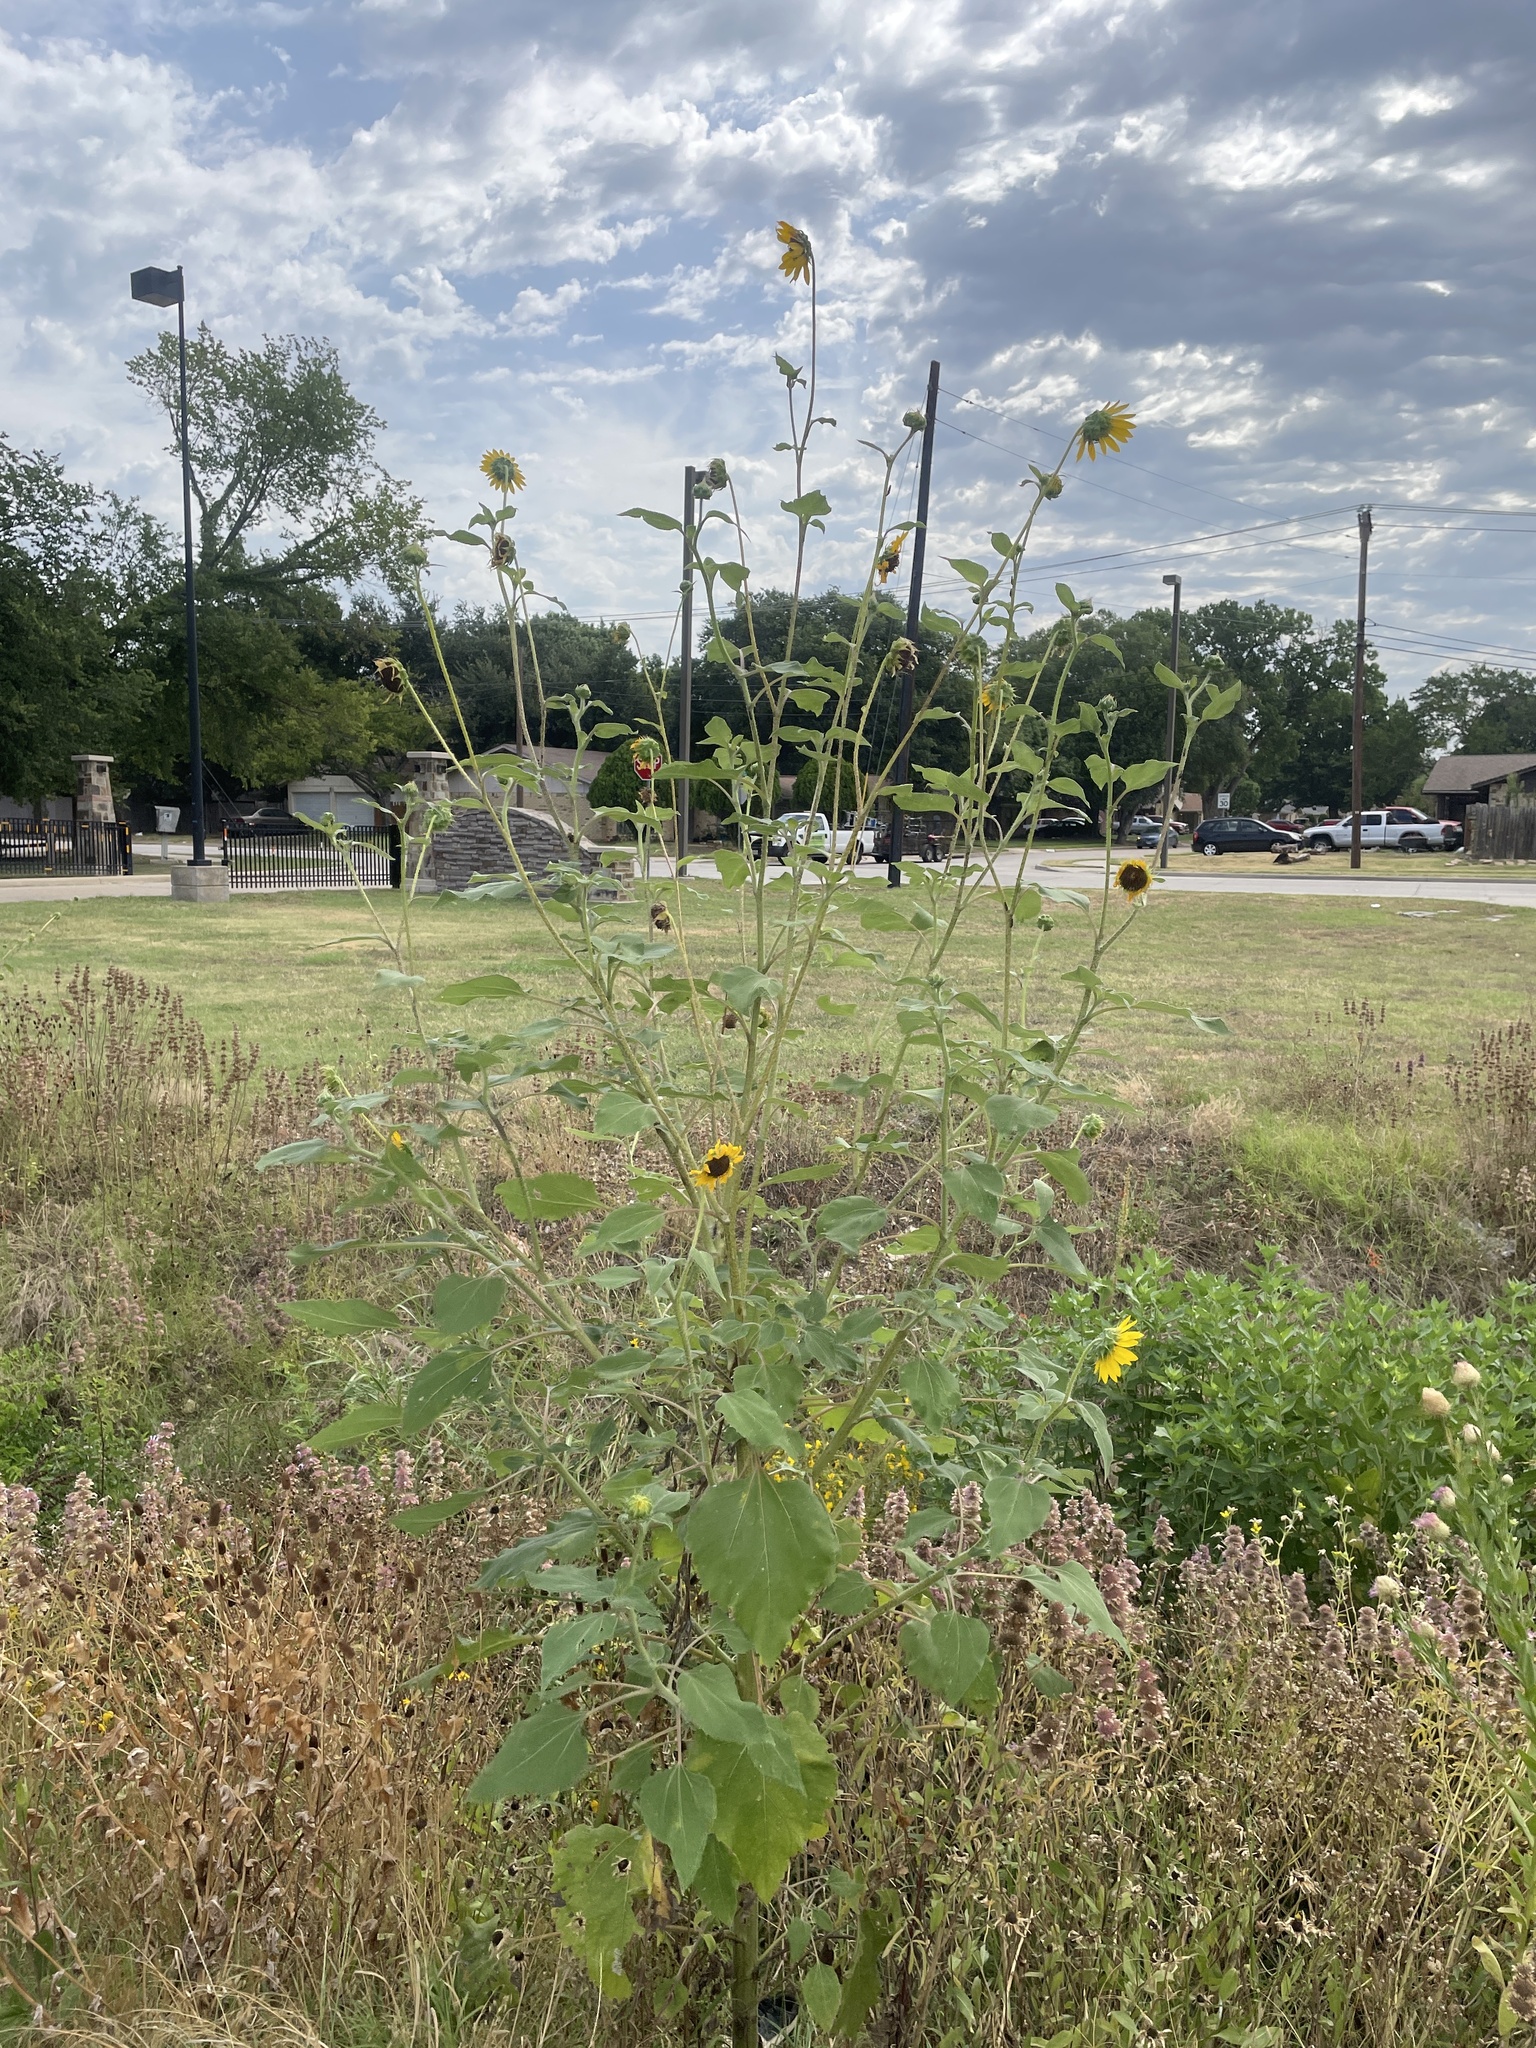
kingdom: Plantae
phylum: Tracheophyta
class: Magnoliopsida
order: Asterales
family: Asteraceae
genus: Helianthus
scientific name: Helianthus annuus
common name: Sunflower
